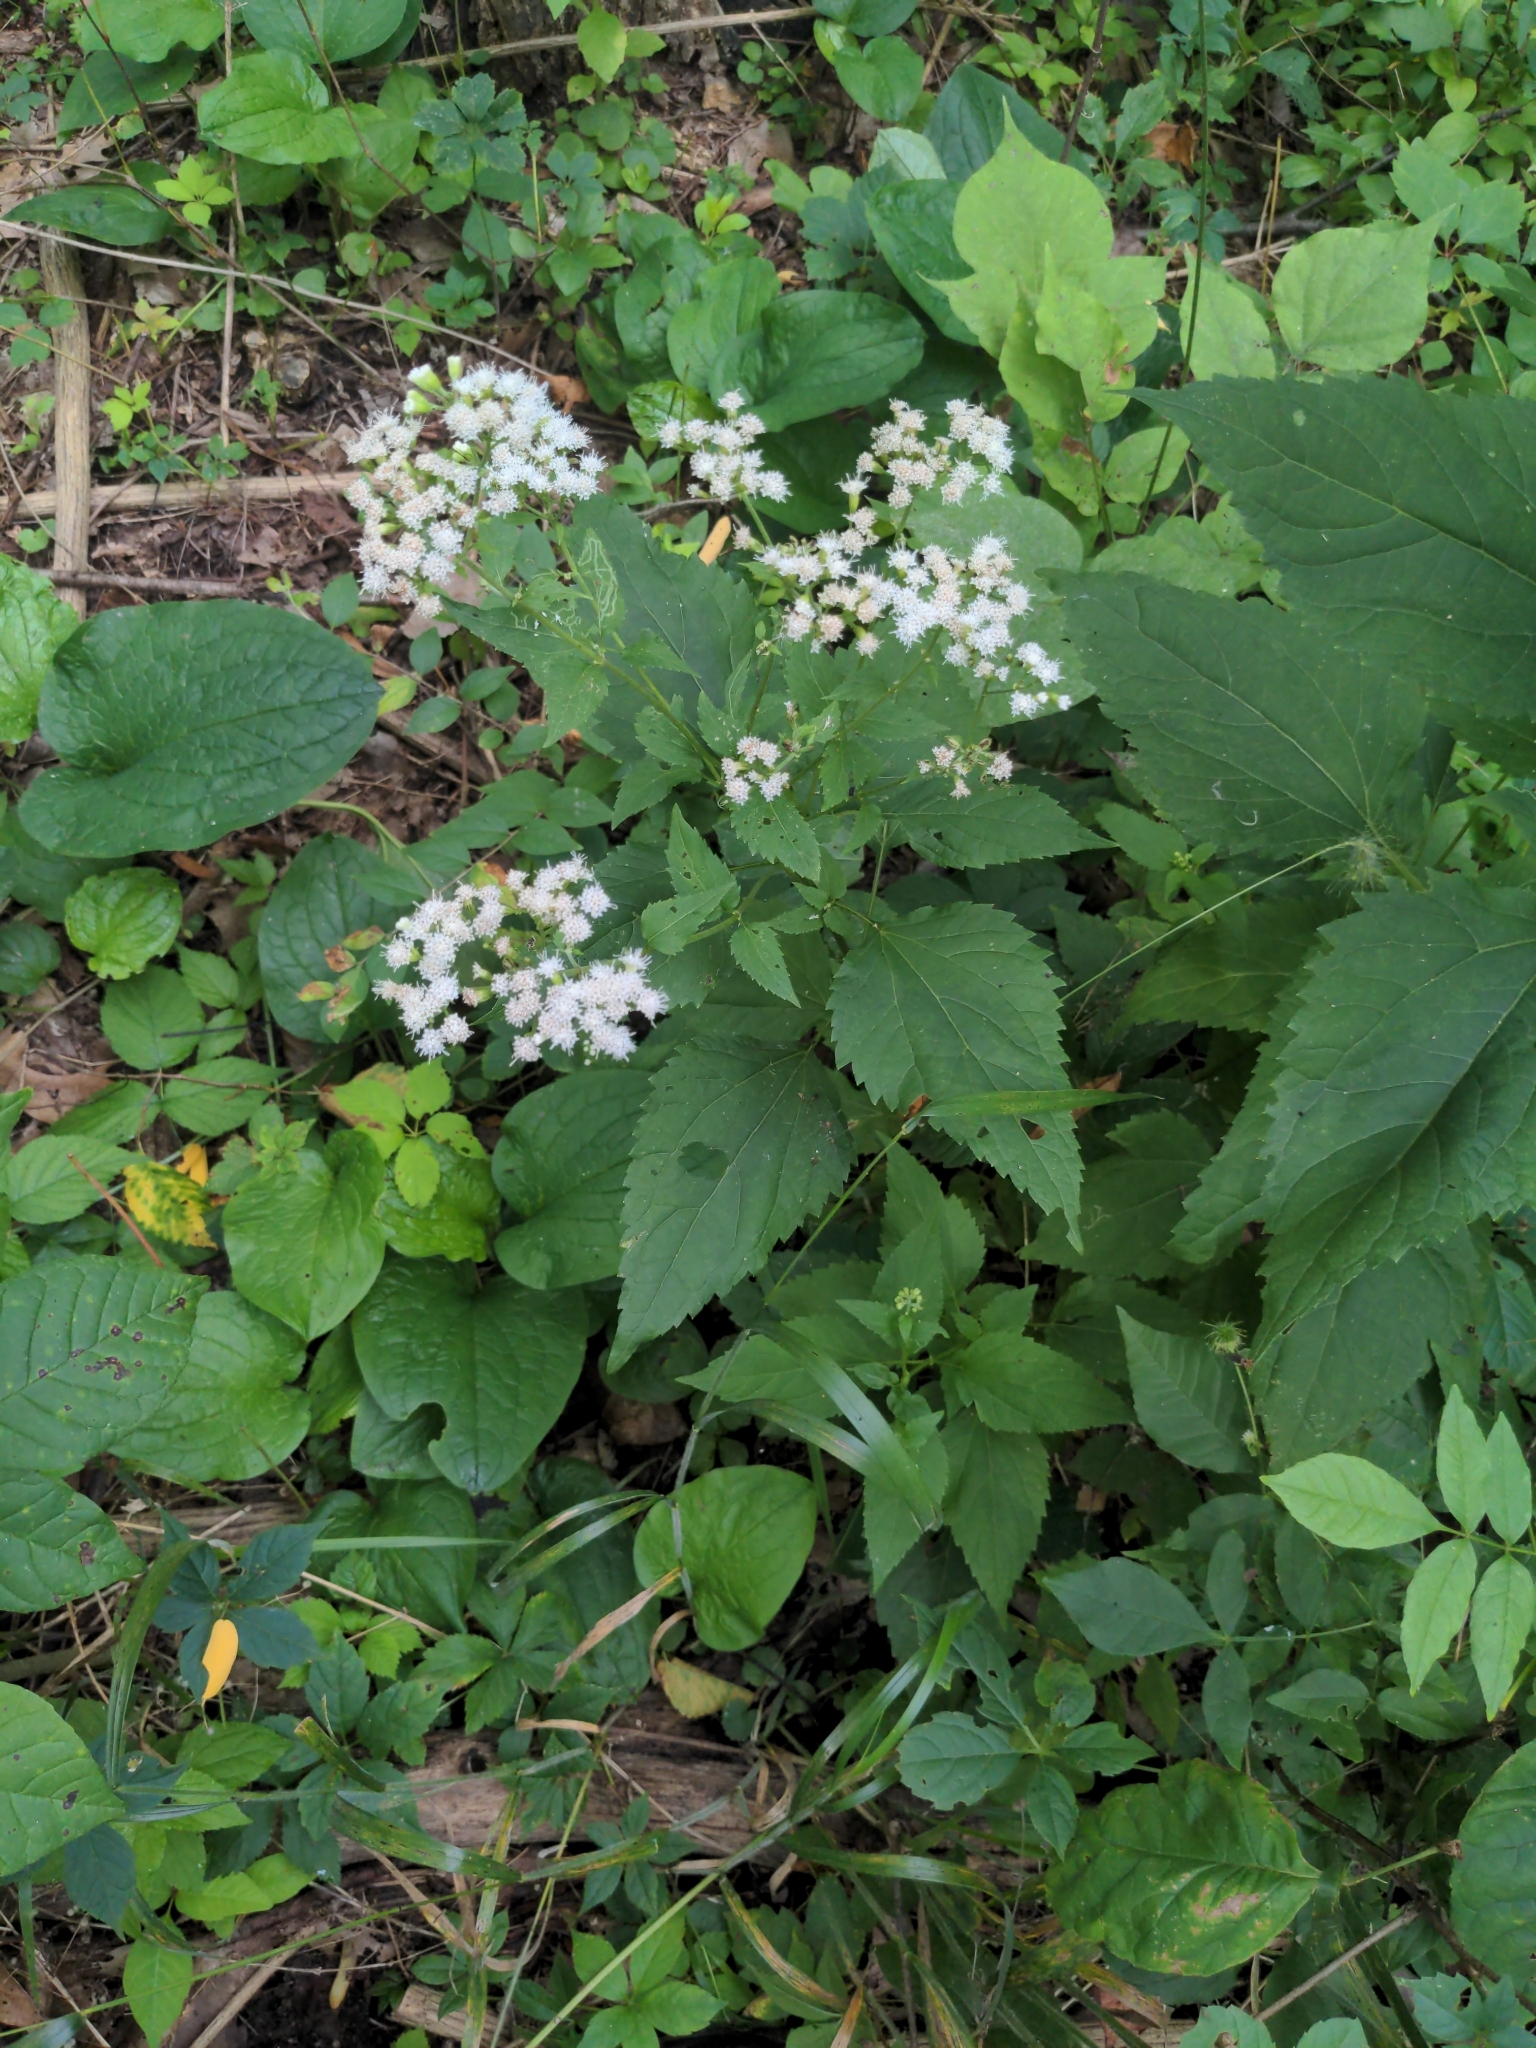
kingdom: Plantae
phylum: Tracheophyta
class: Magnoliopsida
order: Asterales
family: Asteraceae
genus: Ageratina
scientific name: Ageratina altissima
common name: White snakeroot
